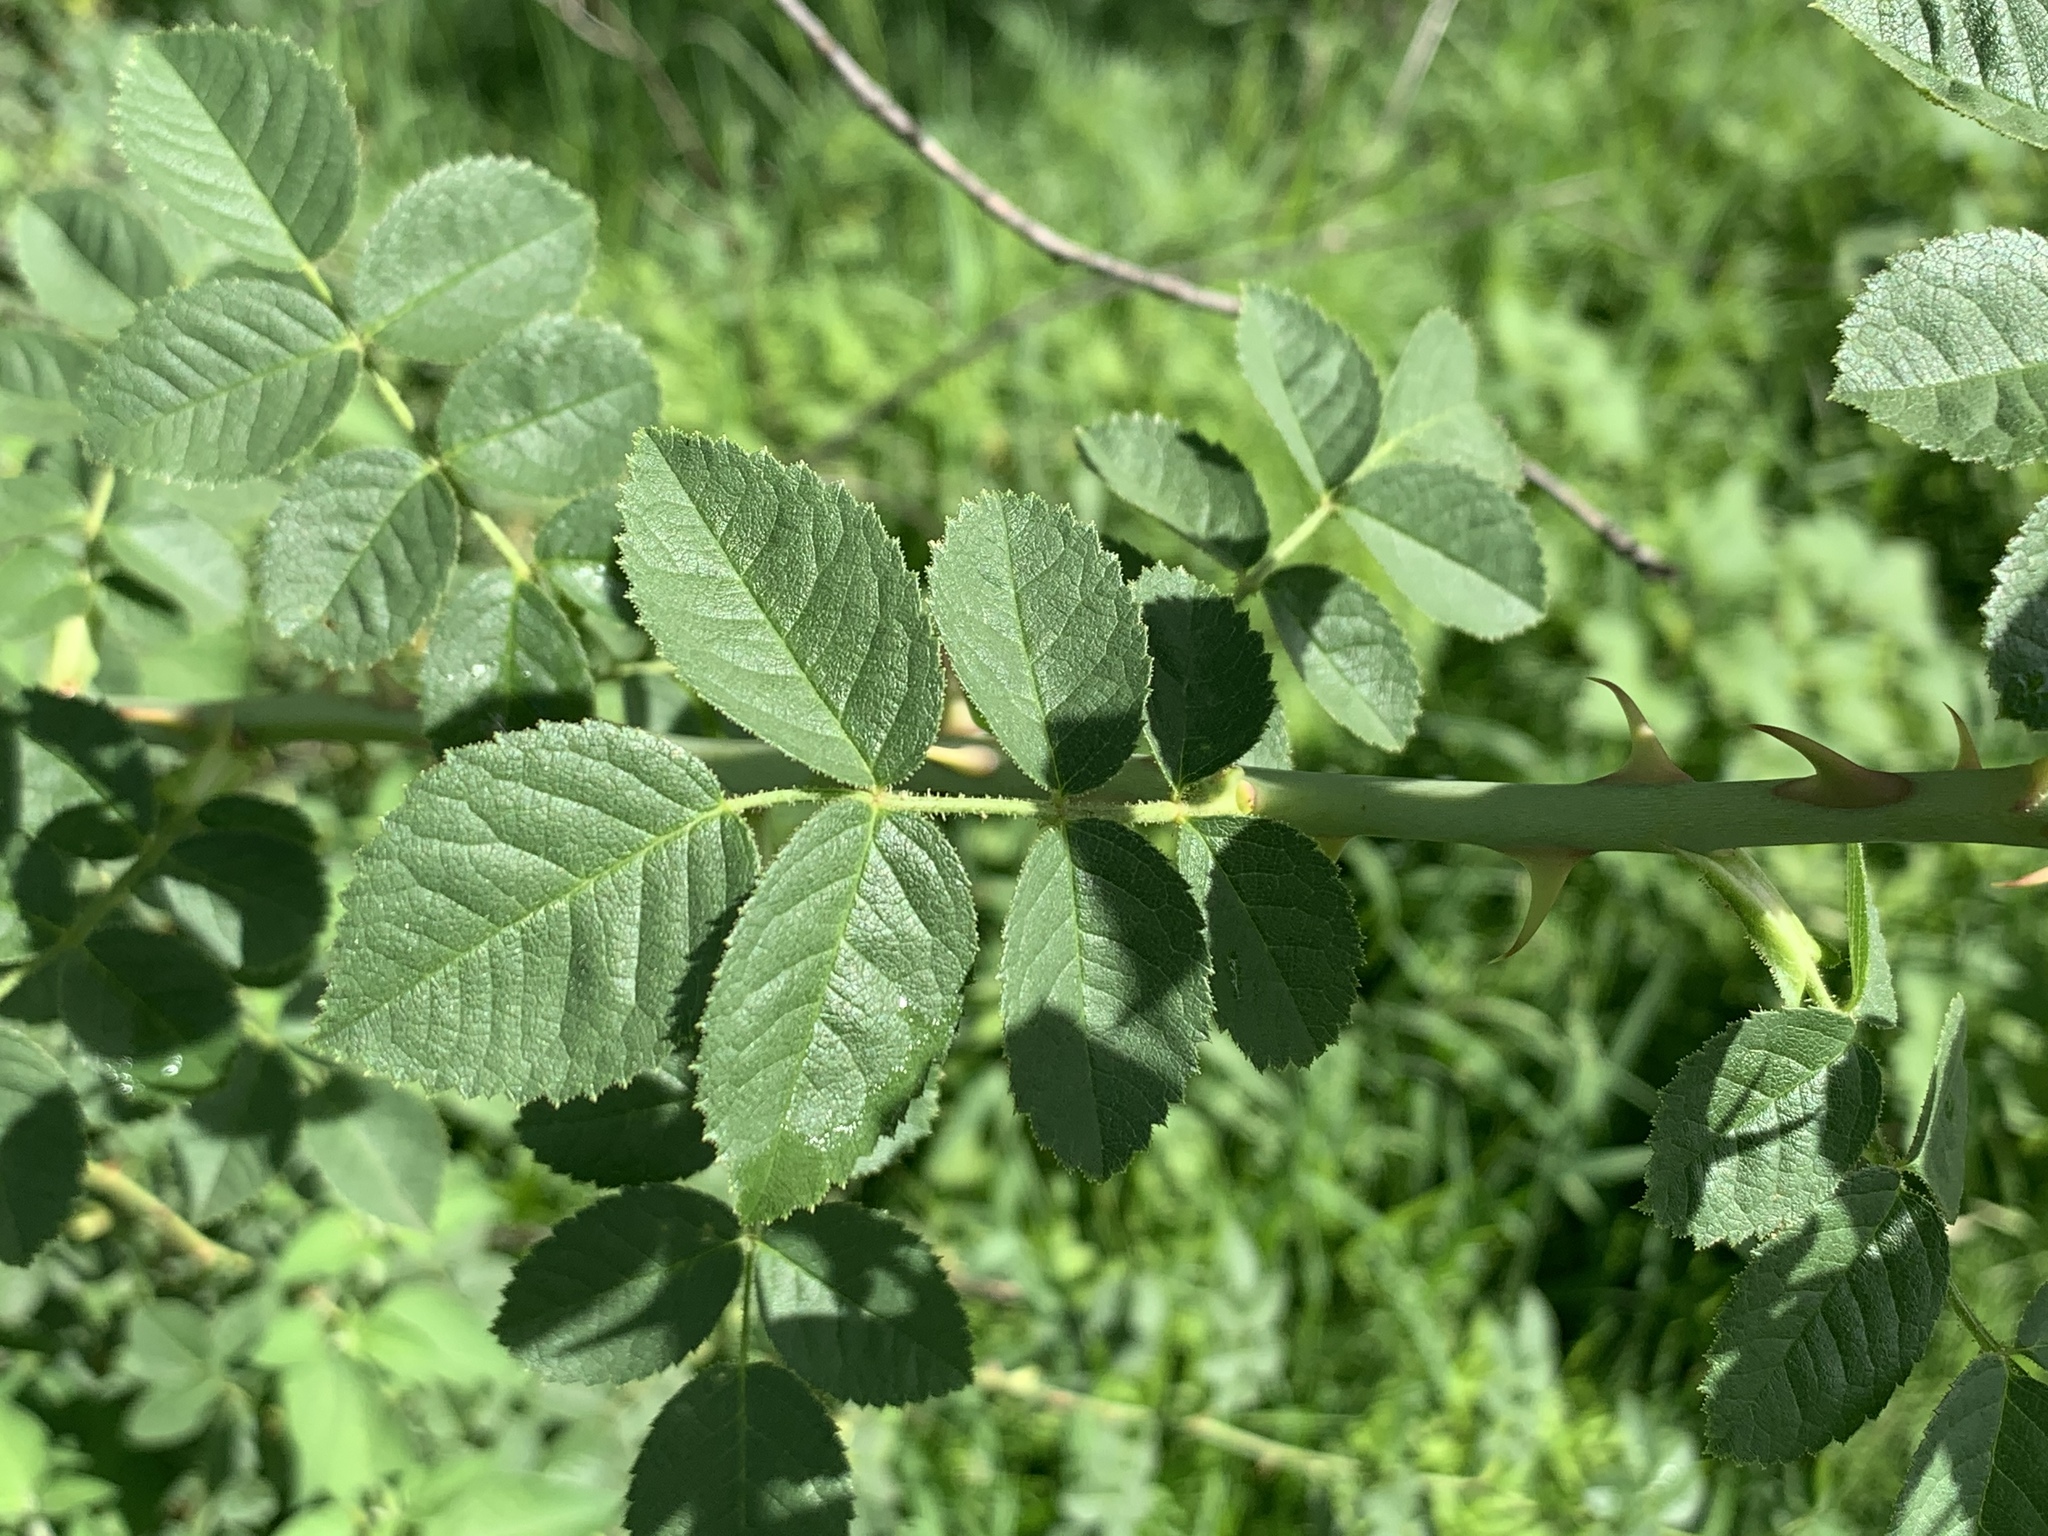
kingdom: Plantae
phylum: Tracheophyta
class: Magnoliopsida
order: Rosales
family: Rosaceae
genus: Rosa
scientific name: Rosa rubiginosa
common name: Sweet-briar
